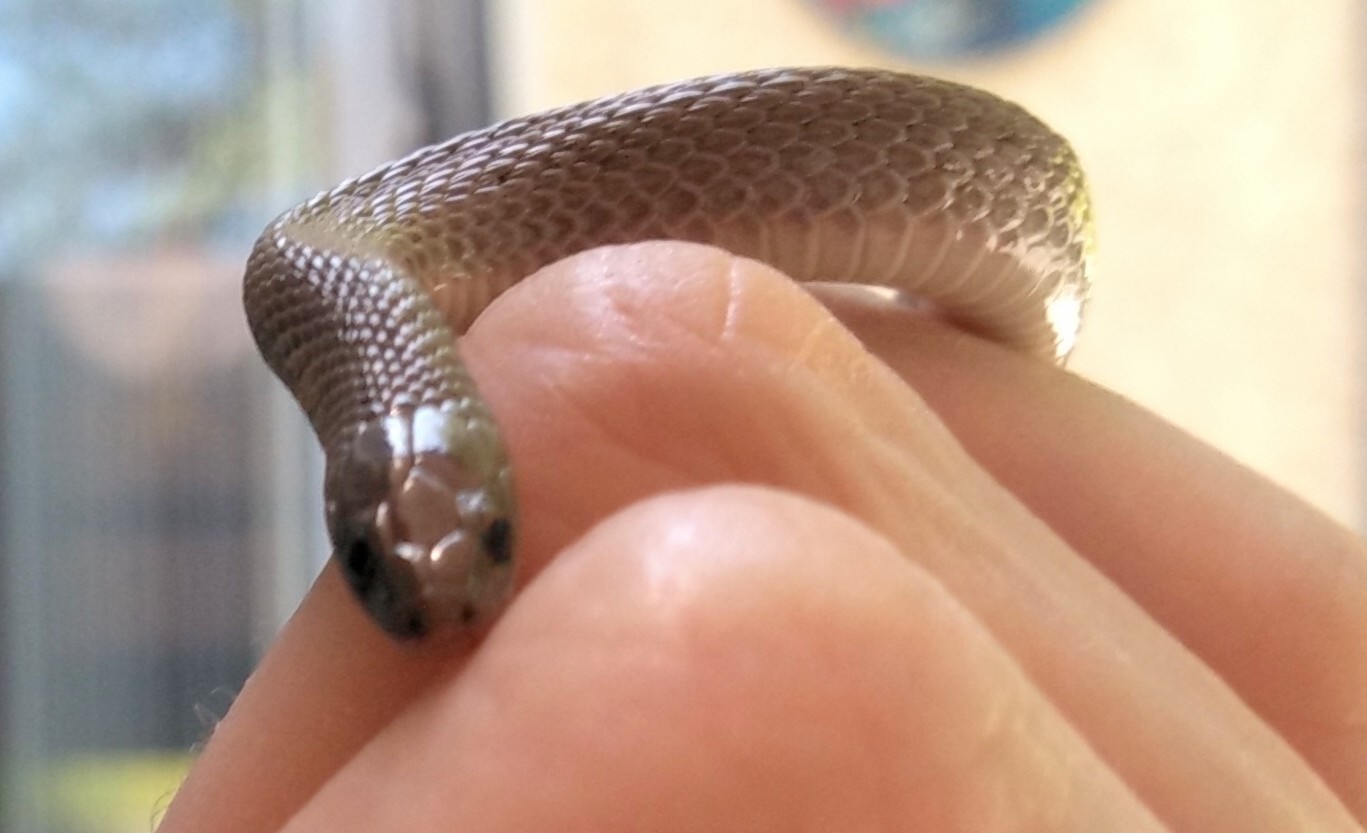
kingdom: Animalia
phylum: Chordata
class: Squamata
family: Colubridae
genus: Haldea
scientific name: Haldea striatula
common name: Rough earth snake
